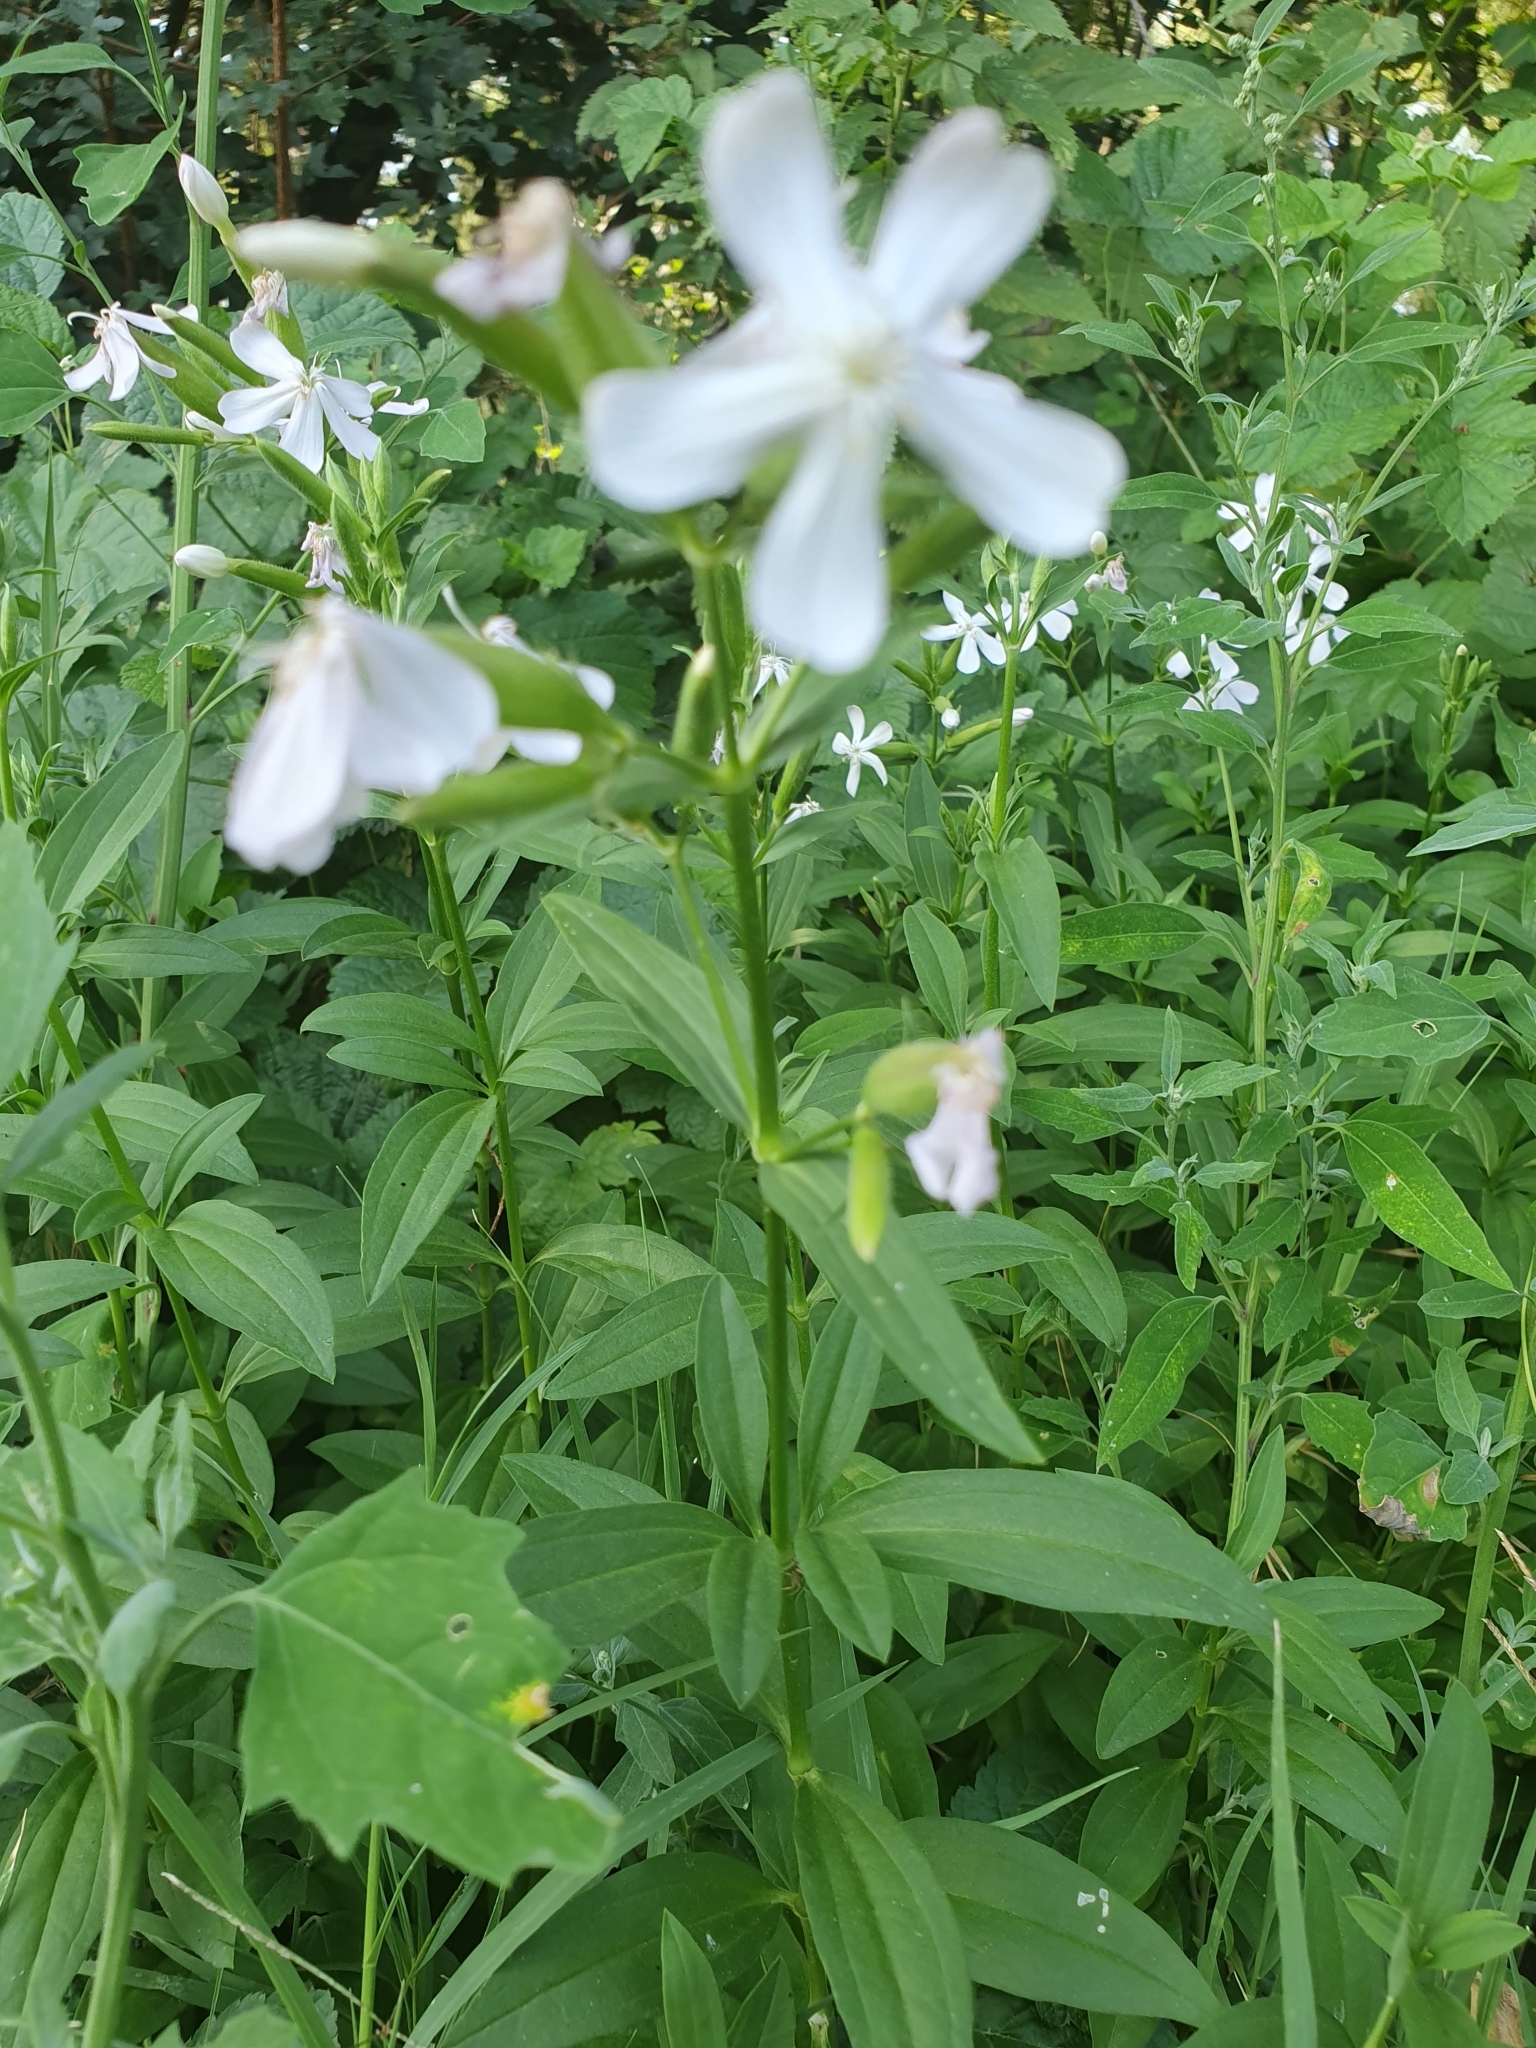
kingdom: Plantae
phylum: Tracheophyta
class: Magnoliopsida
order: Caryophyllales
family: Caryophyllaceae
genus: Saponaria
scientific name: Saponaria officinalis
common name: Soapwort
